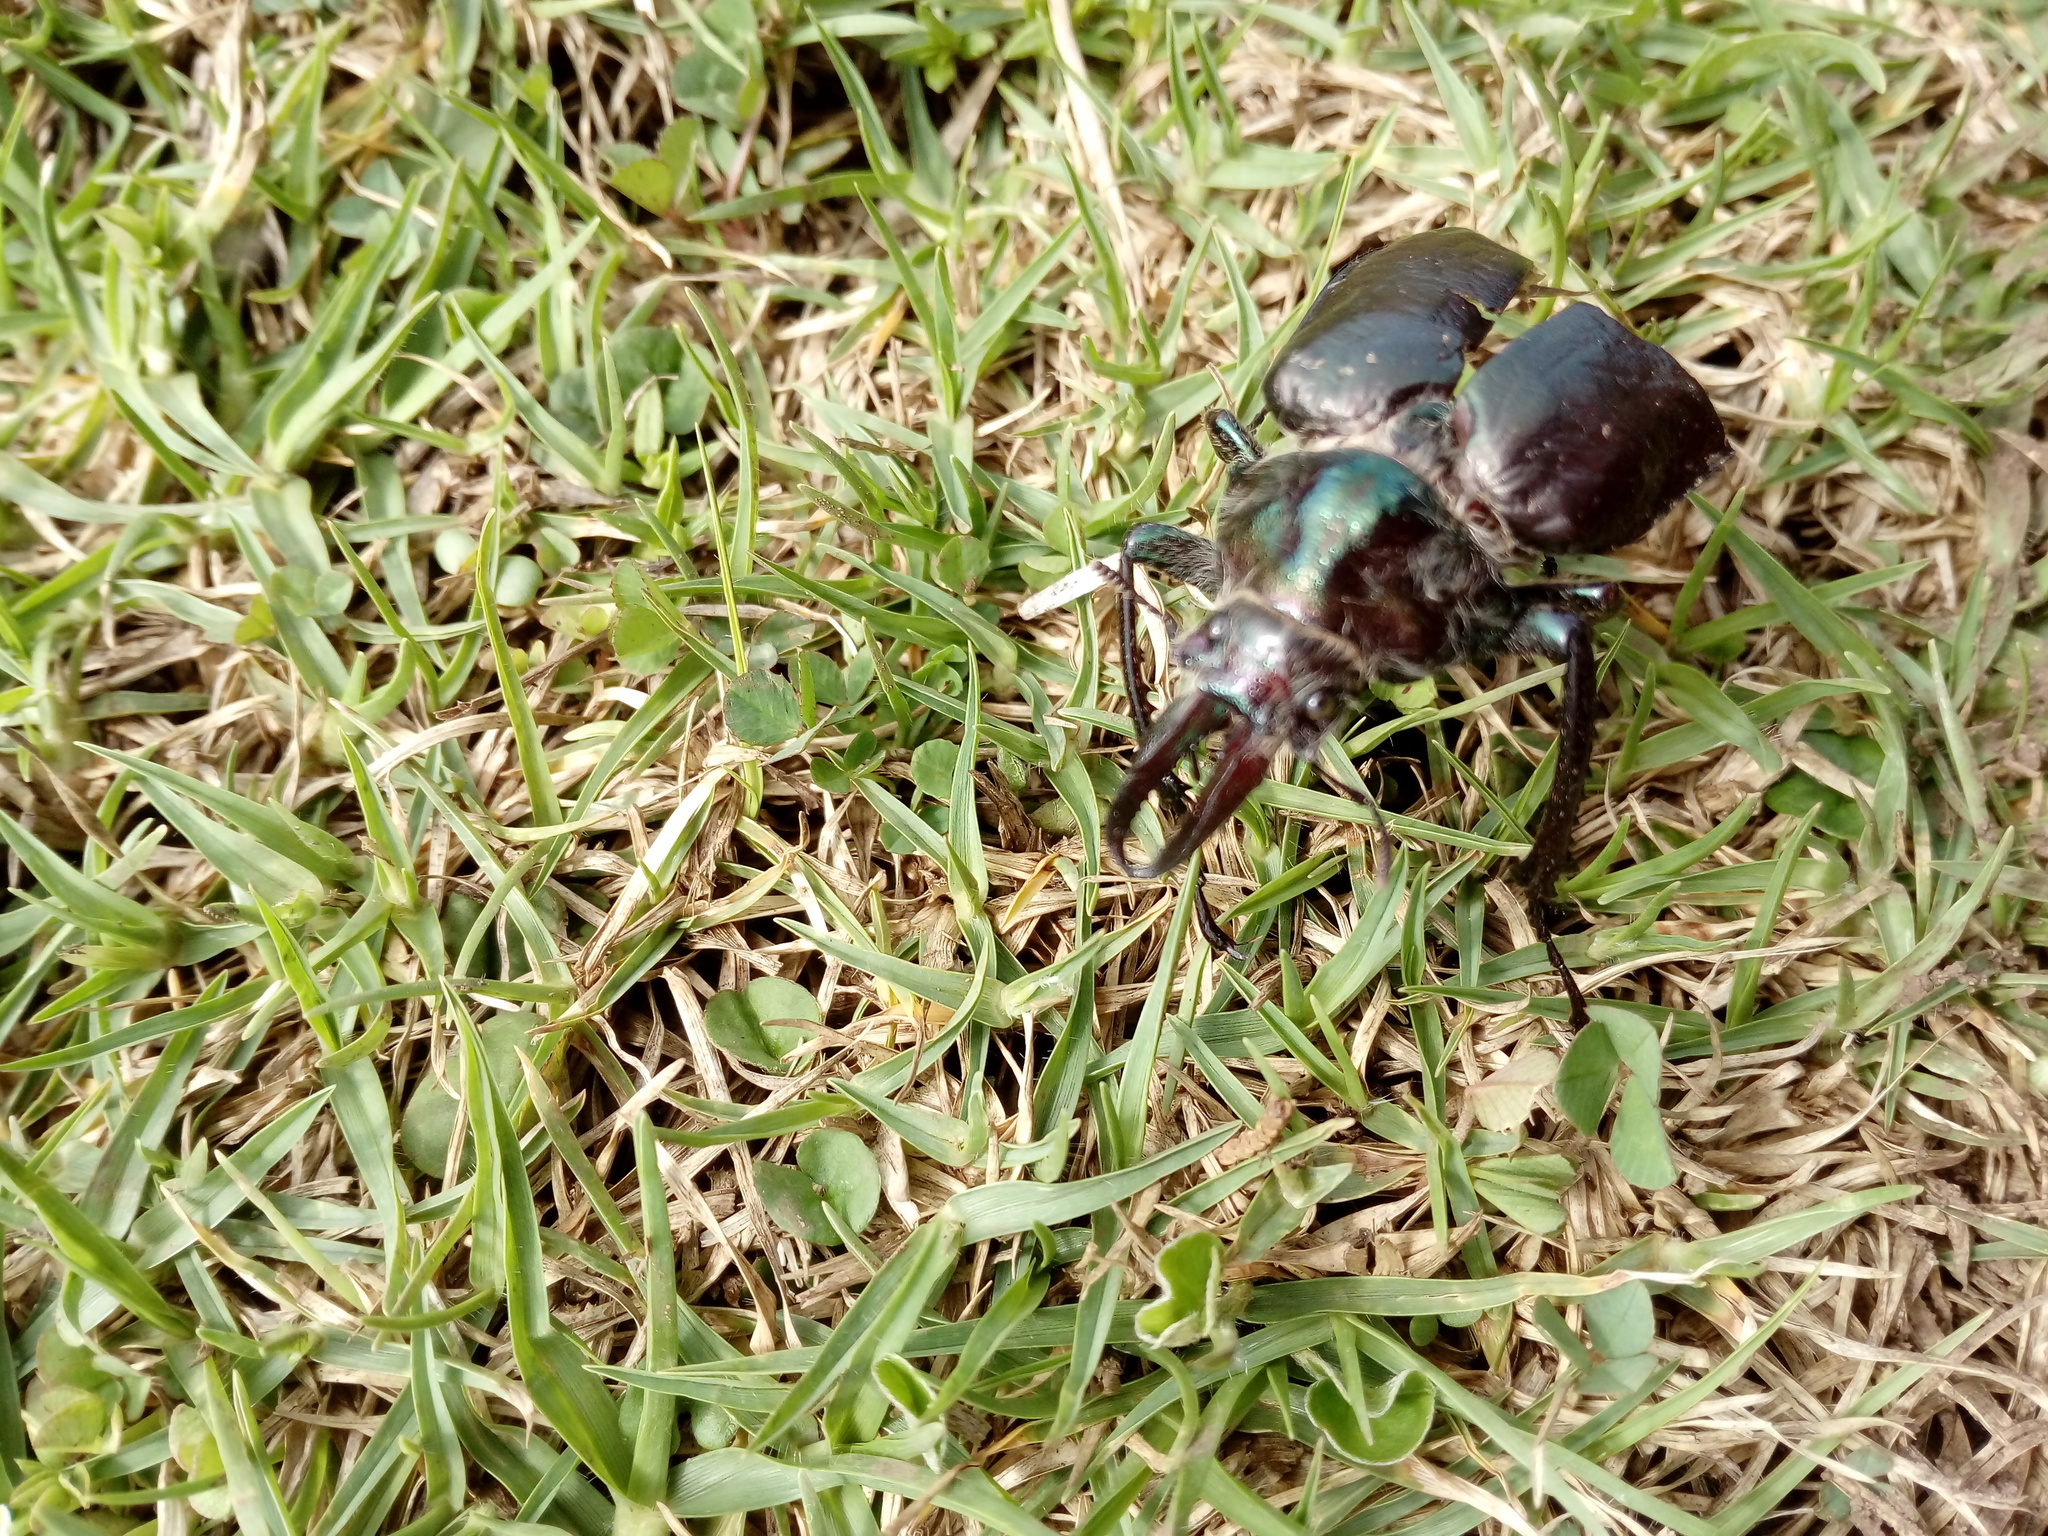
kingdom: Animalia
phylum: Arthropoda
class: Insecta
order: Coleoptera
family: Lucanidae
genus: Sphaenognathus
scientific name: Sphaenognathus armatus
